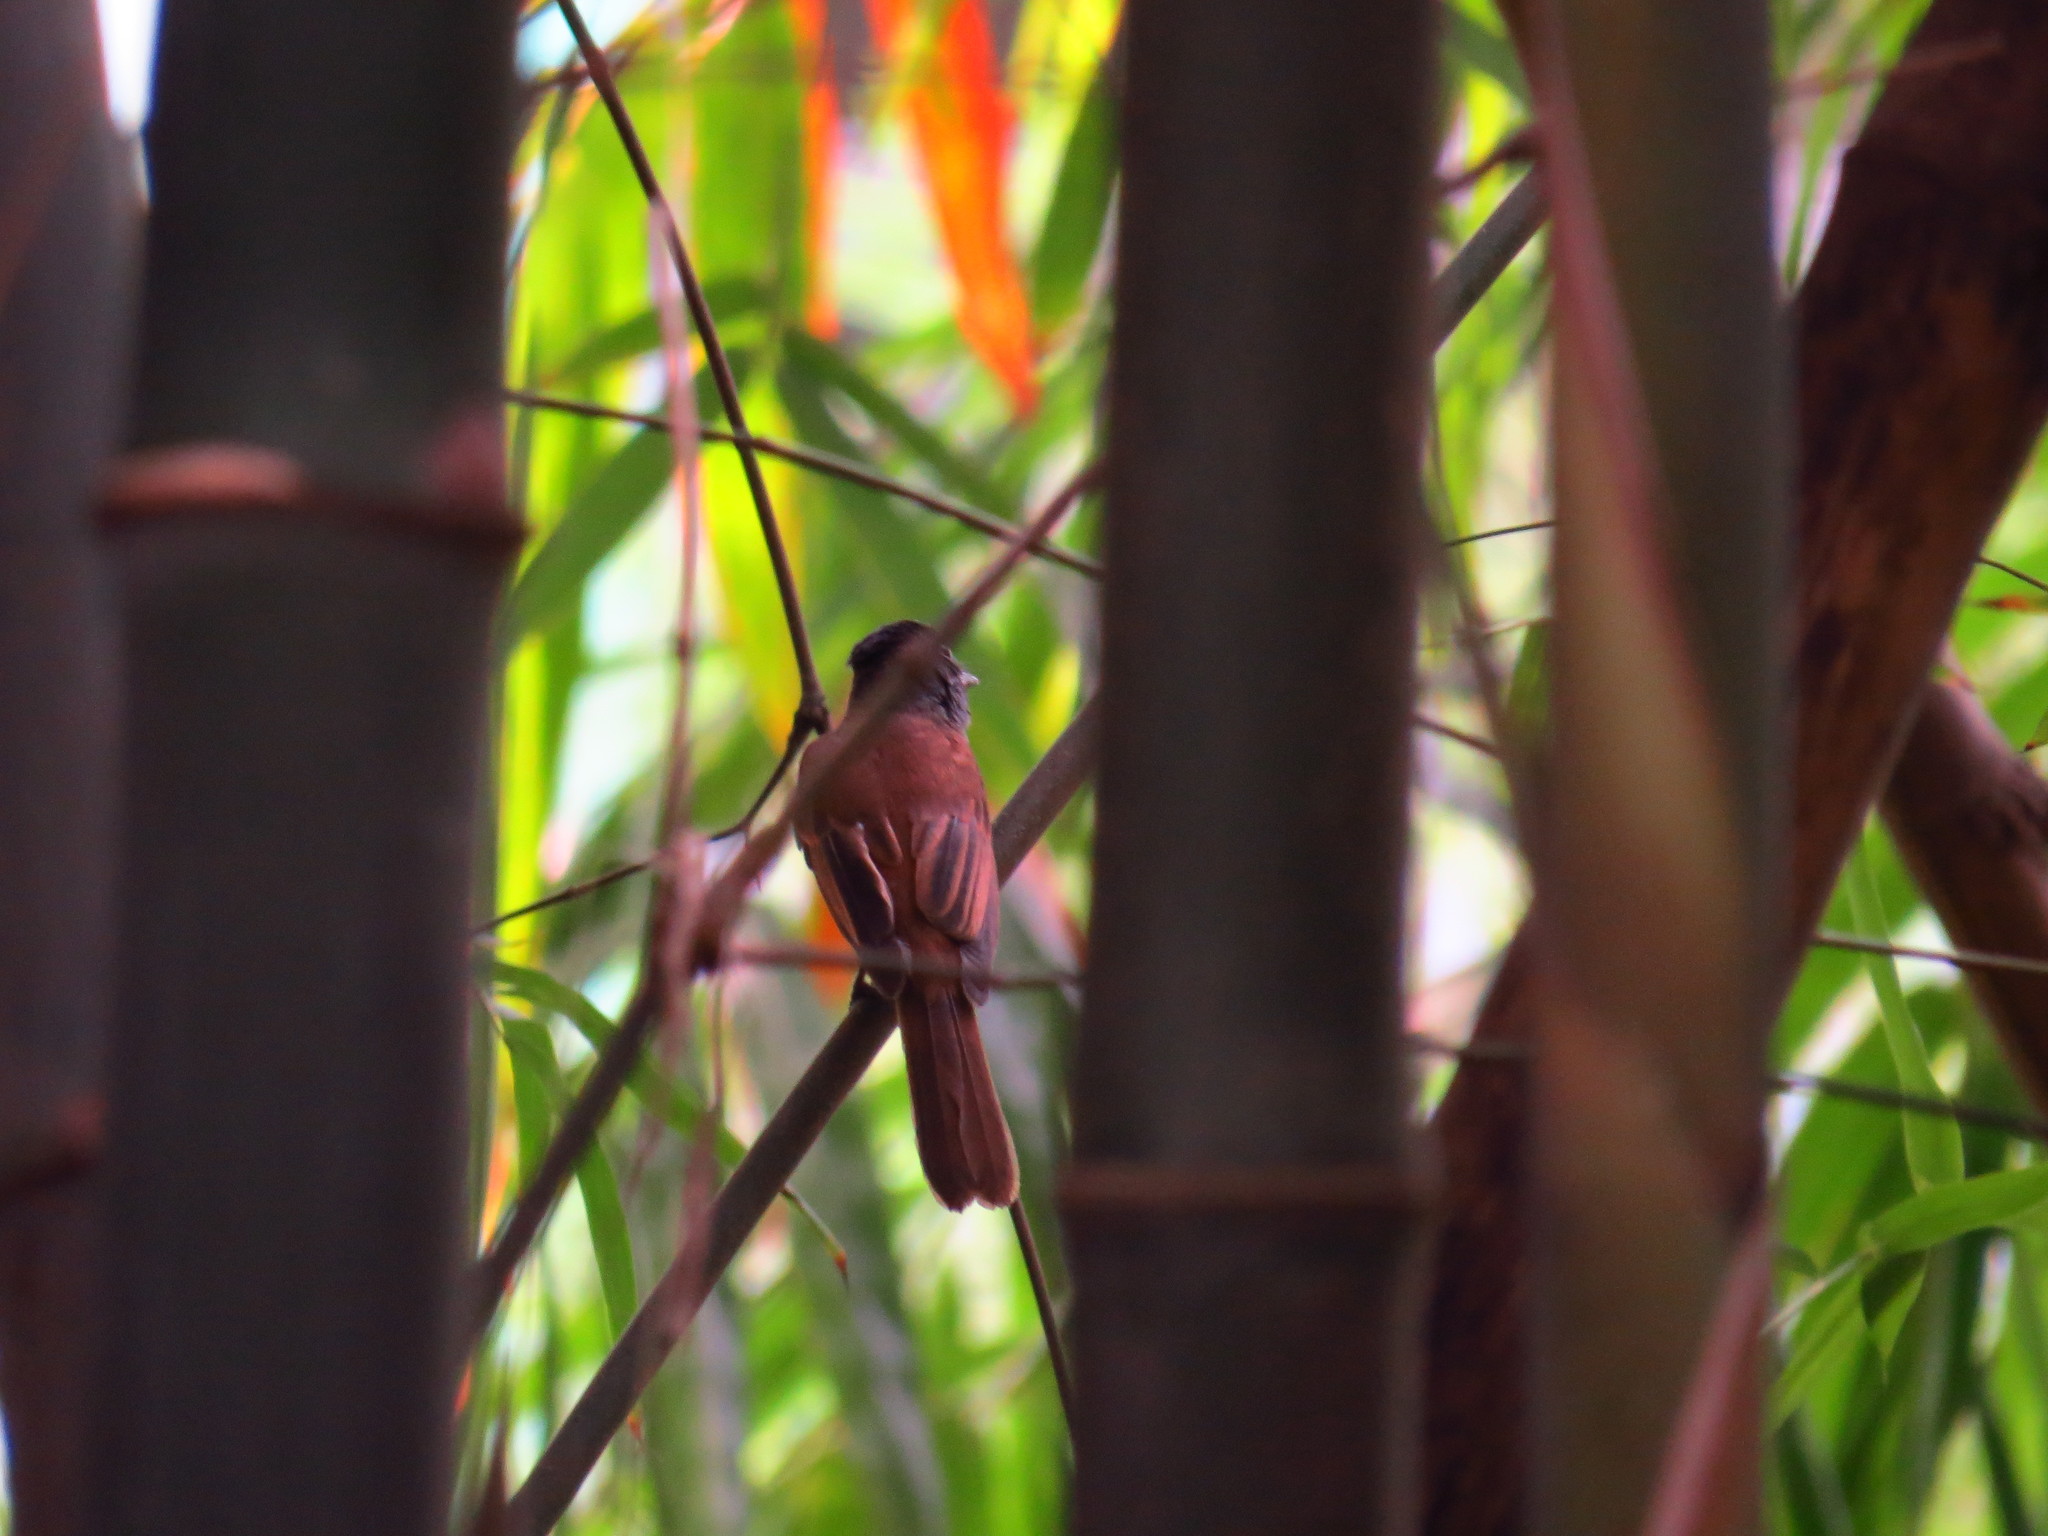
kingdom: Animalia
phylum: Chordata
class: Aves
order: Passeriformes
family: Monarchidae
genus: Terpsiphone
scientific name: Terpsiphone atrocaudata
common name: Japanese paradise flycatcher
